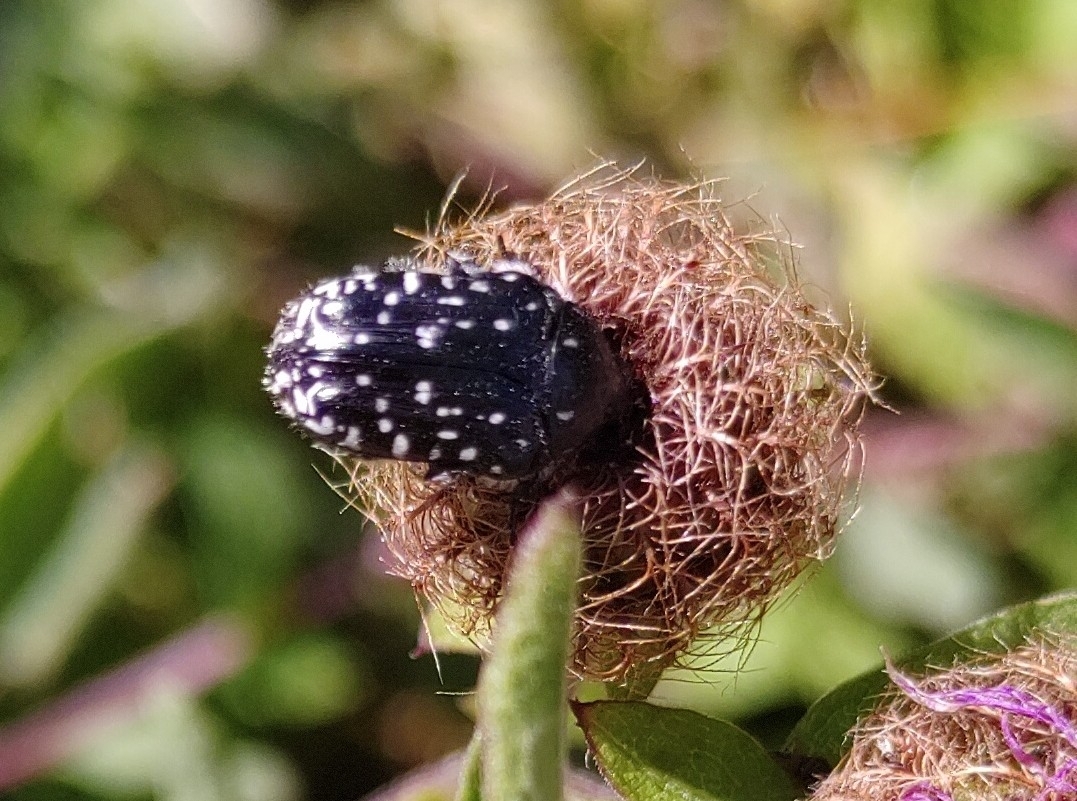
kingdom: Animalia
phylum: Arthropoda
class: Insecta
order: Coleoptera
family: Scarabaeidae
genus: Oxythyrea
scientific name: Oxythyrea funesta
